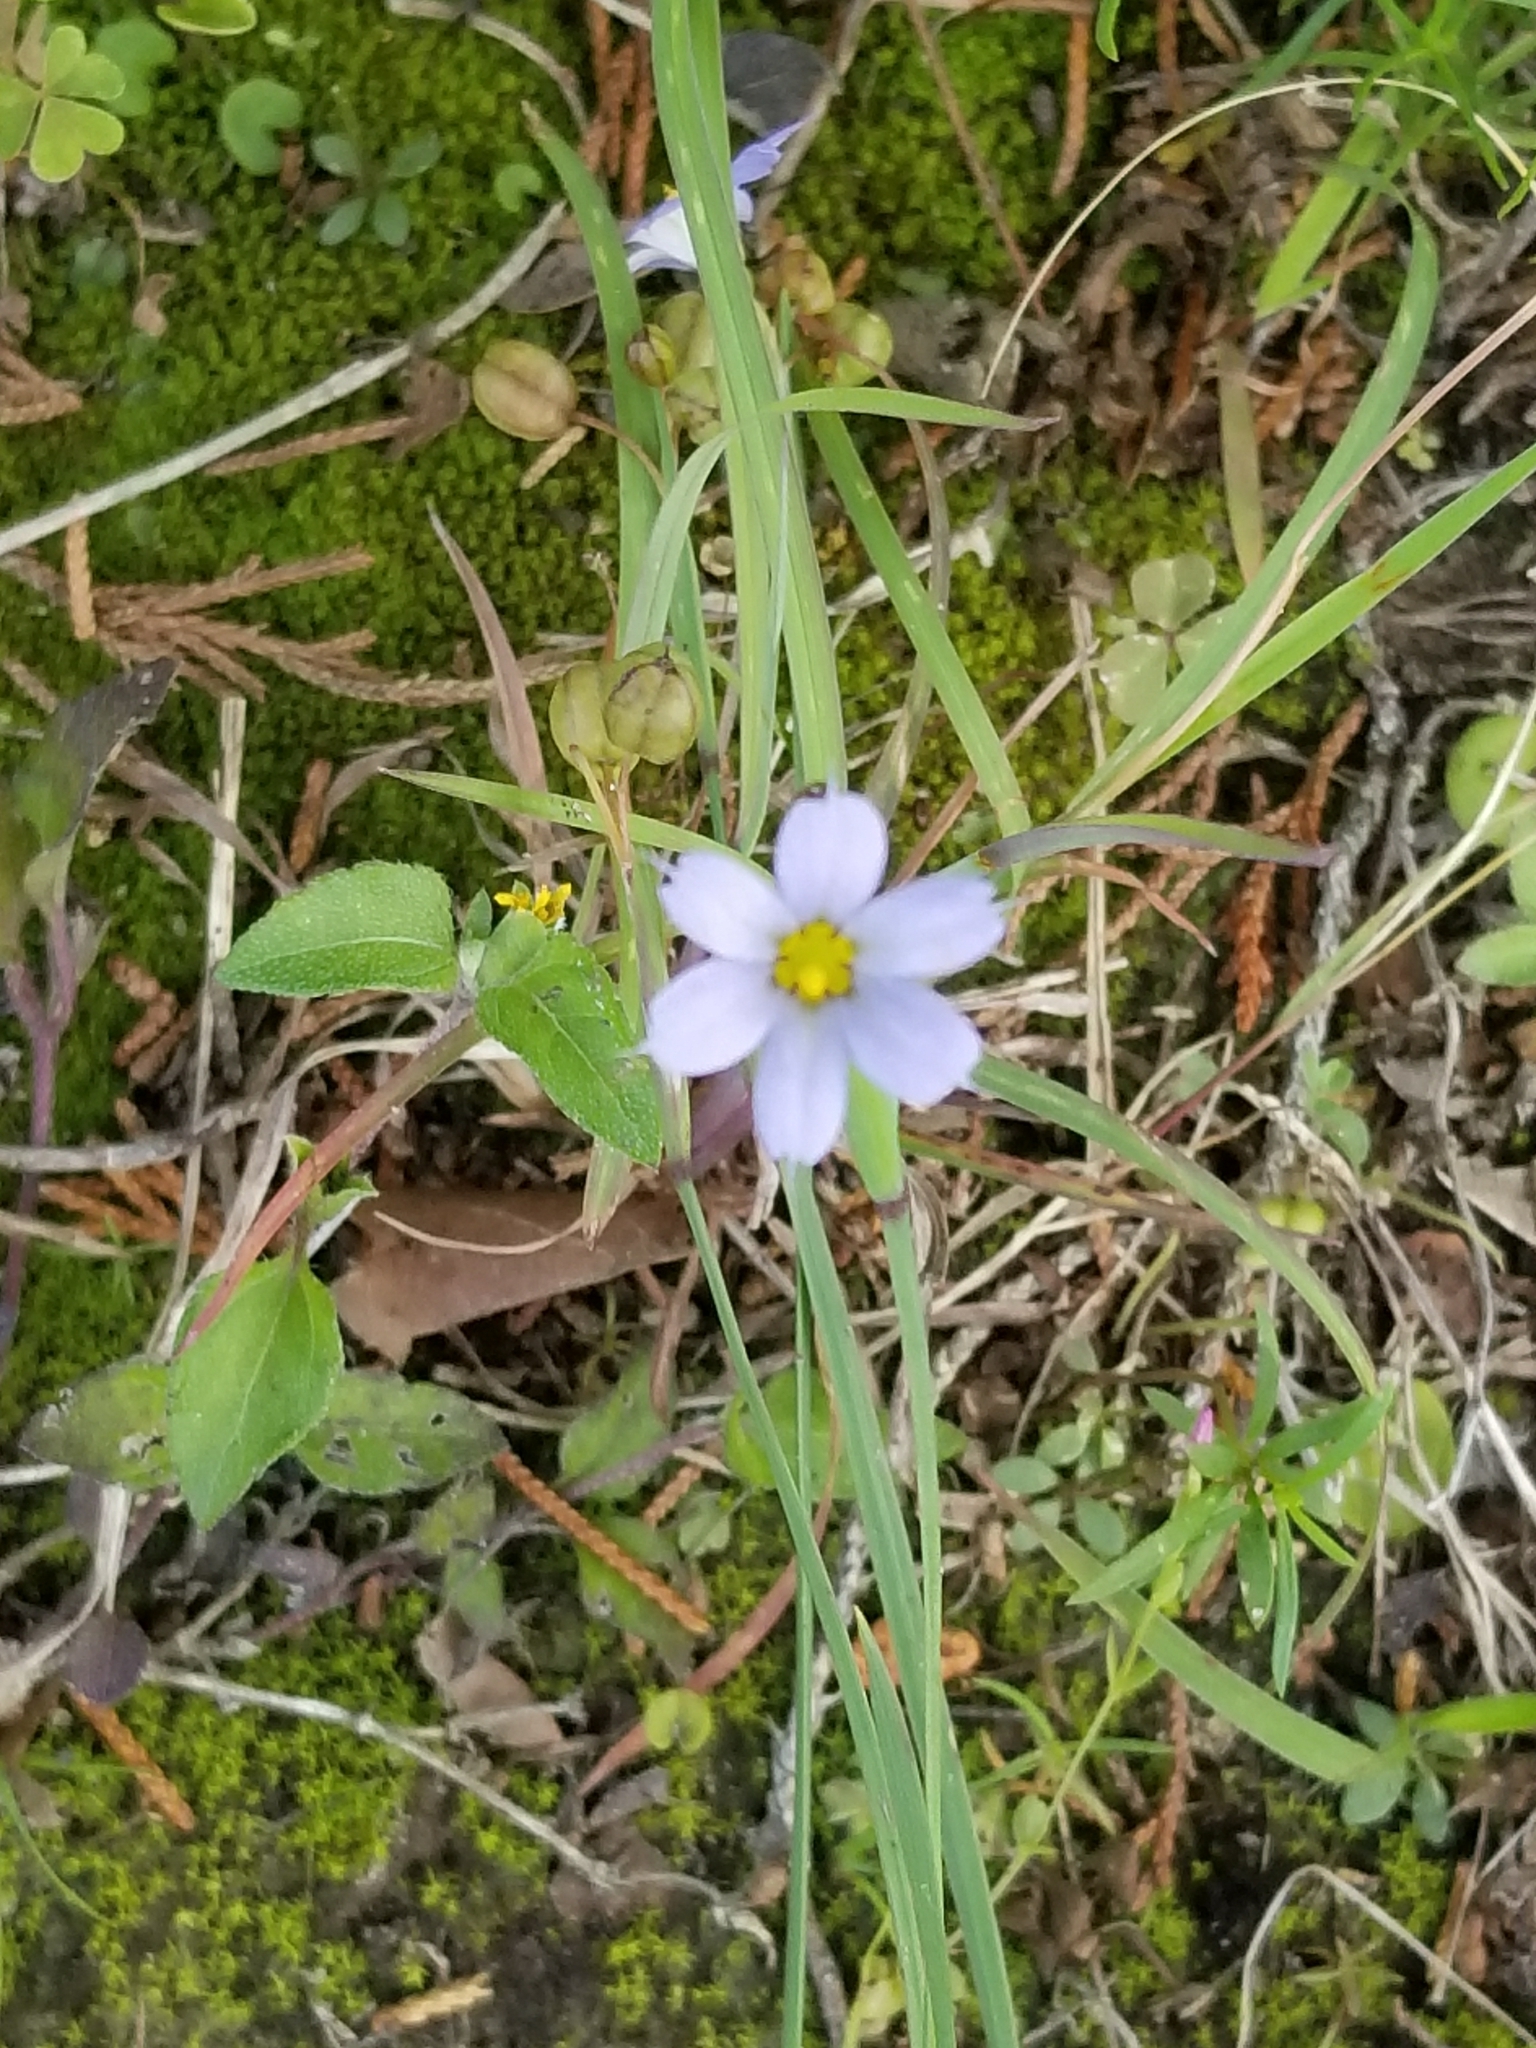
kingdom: Plantae
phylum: Tracheophyta
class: Liliopsida
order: Asparagales
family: Iridaceae
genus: Sisyrinchium
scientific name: Sisyrinchium angustifolium
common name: Narrow-leaf blue-eyed-grass
